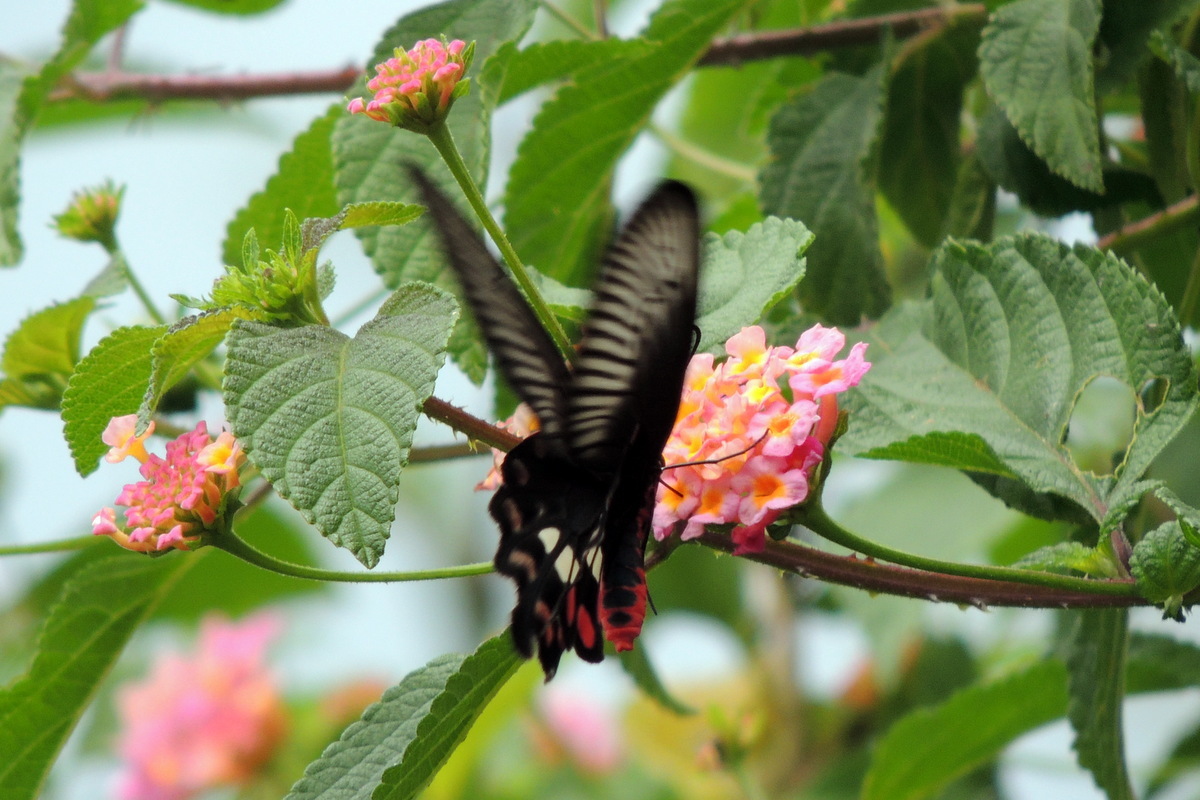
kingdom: Animalia
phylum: Arthropoda
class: Insecta
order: Lepidoptera
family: Papilionidae
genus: Pachliopta
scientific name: Pachliopta aristolochiae
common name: Common rose
